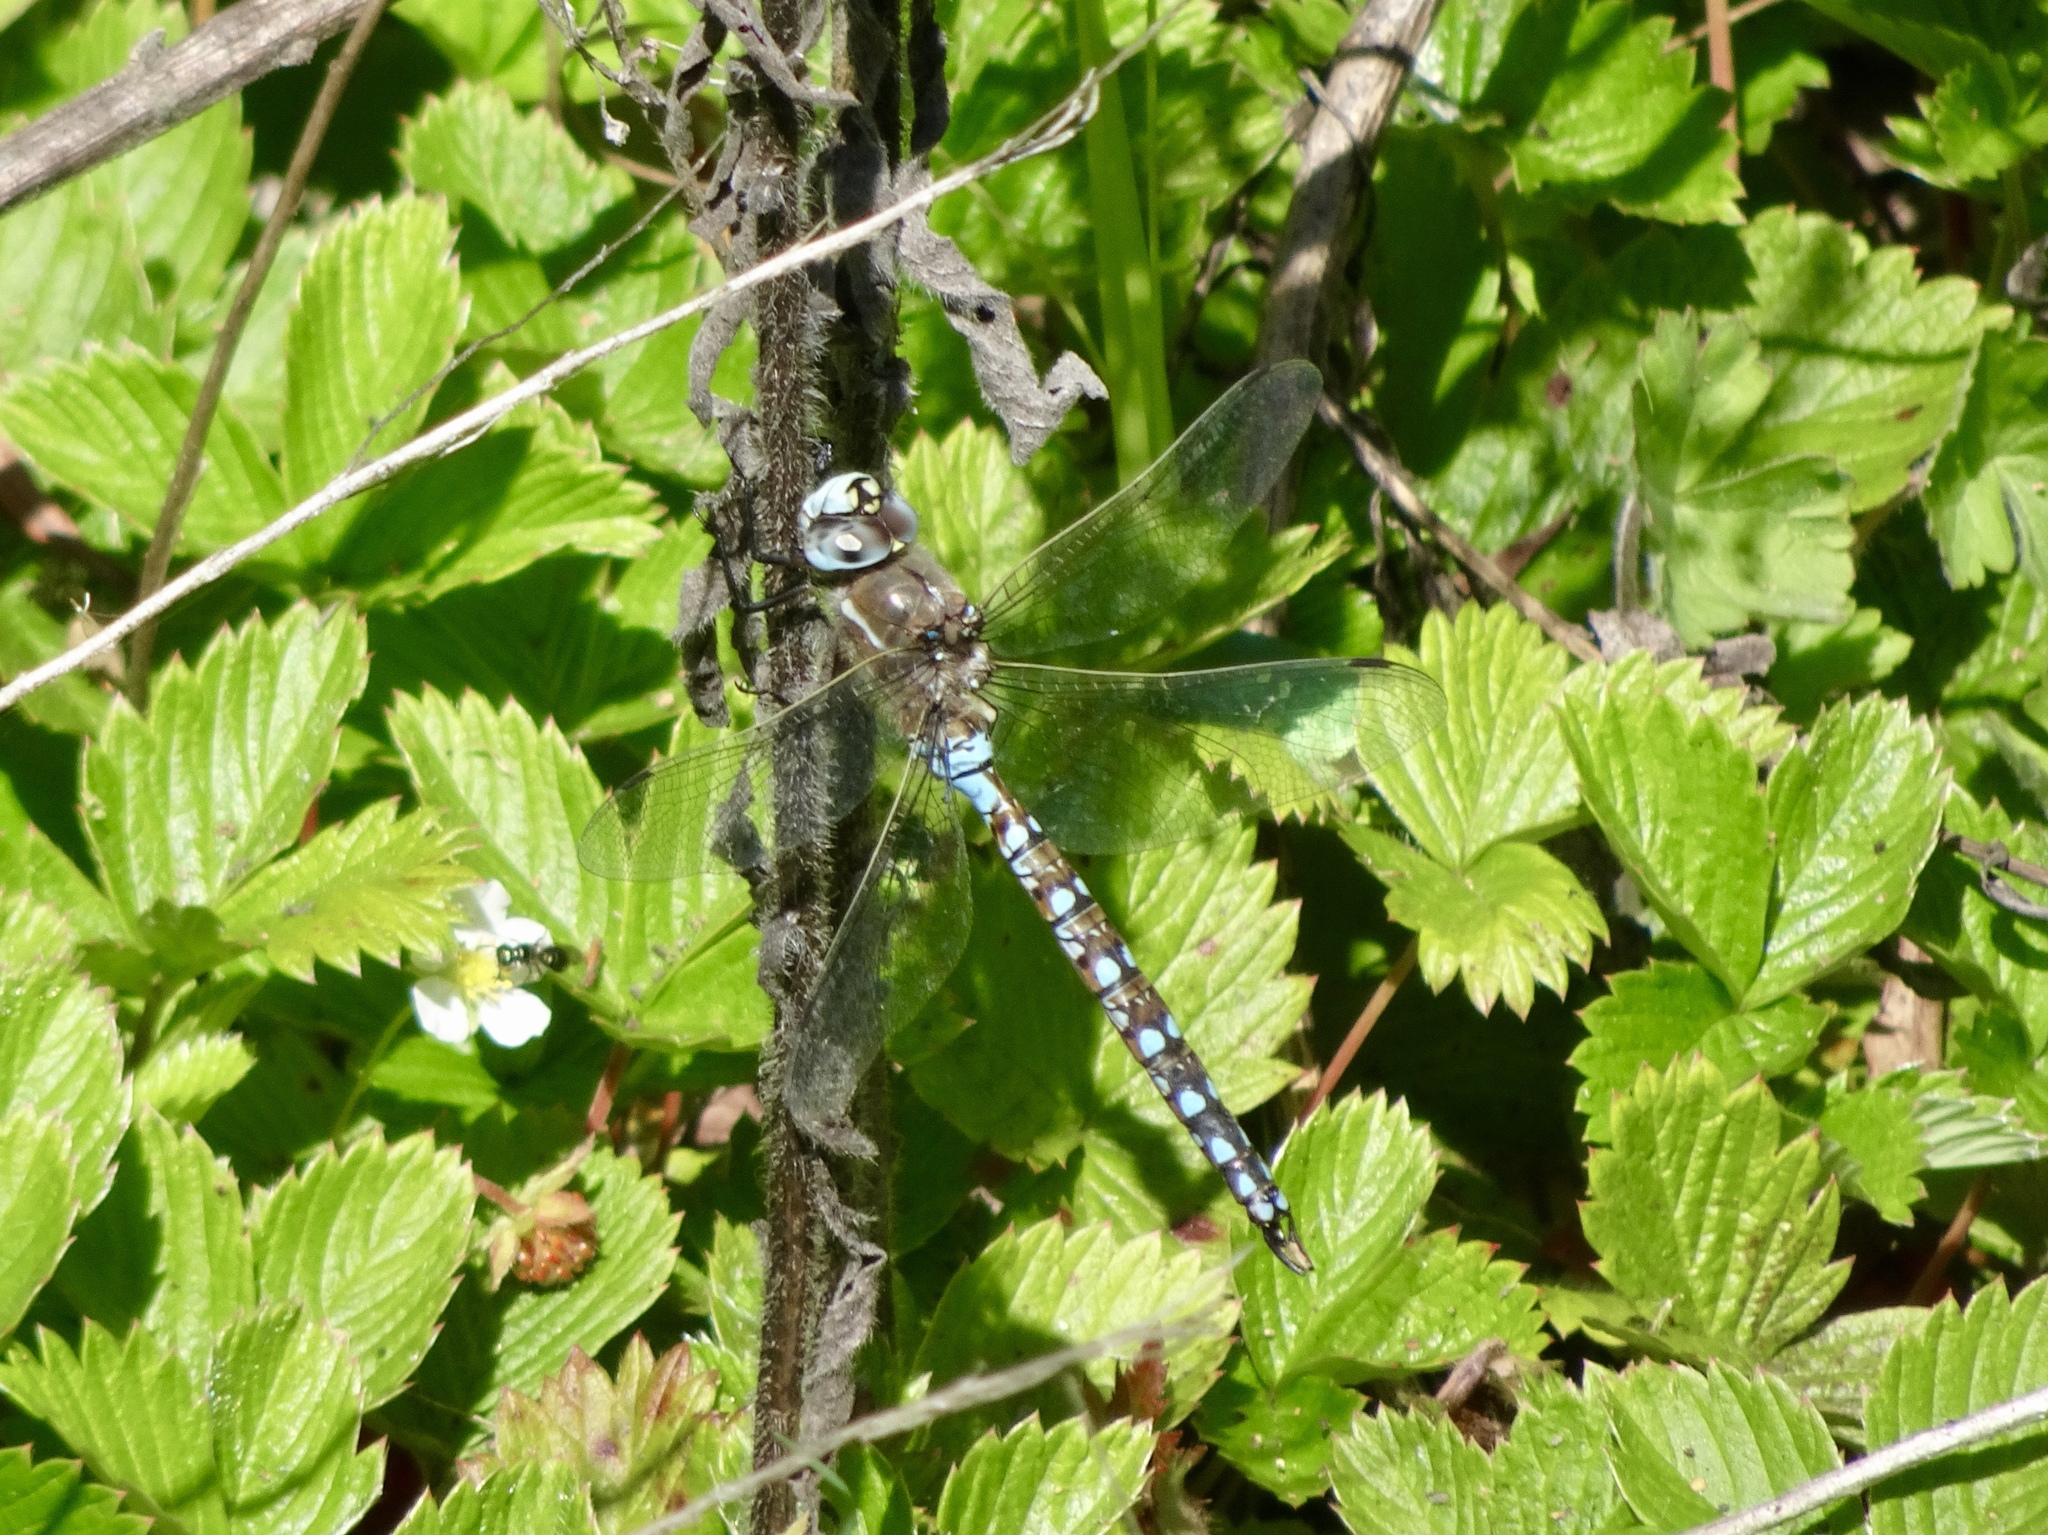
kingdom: Animalia
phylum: Arthropoda
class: Insecta
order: Odonata
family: Aeshnidae
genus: Rhionaeschna
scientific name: Rhionaeschna californica
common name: California darner
